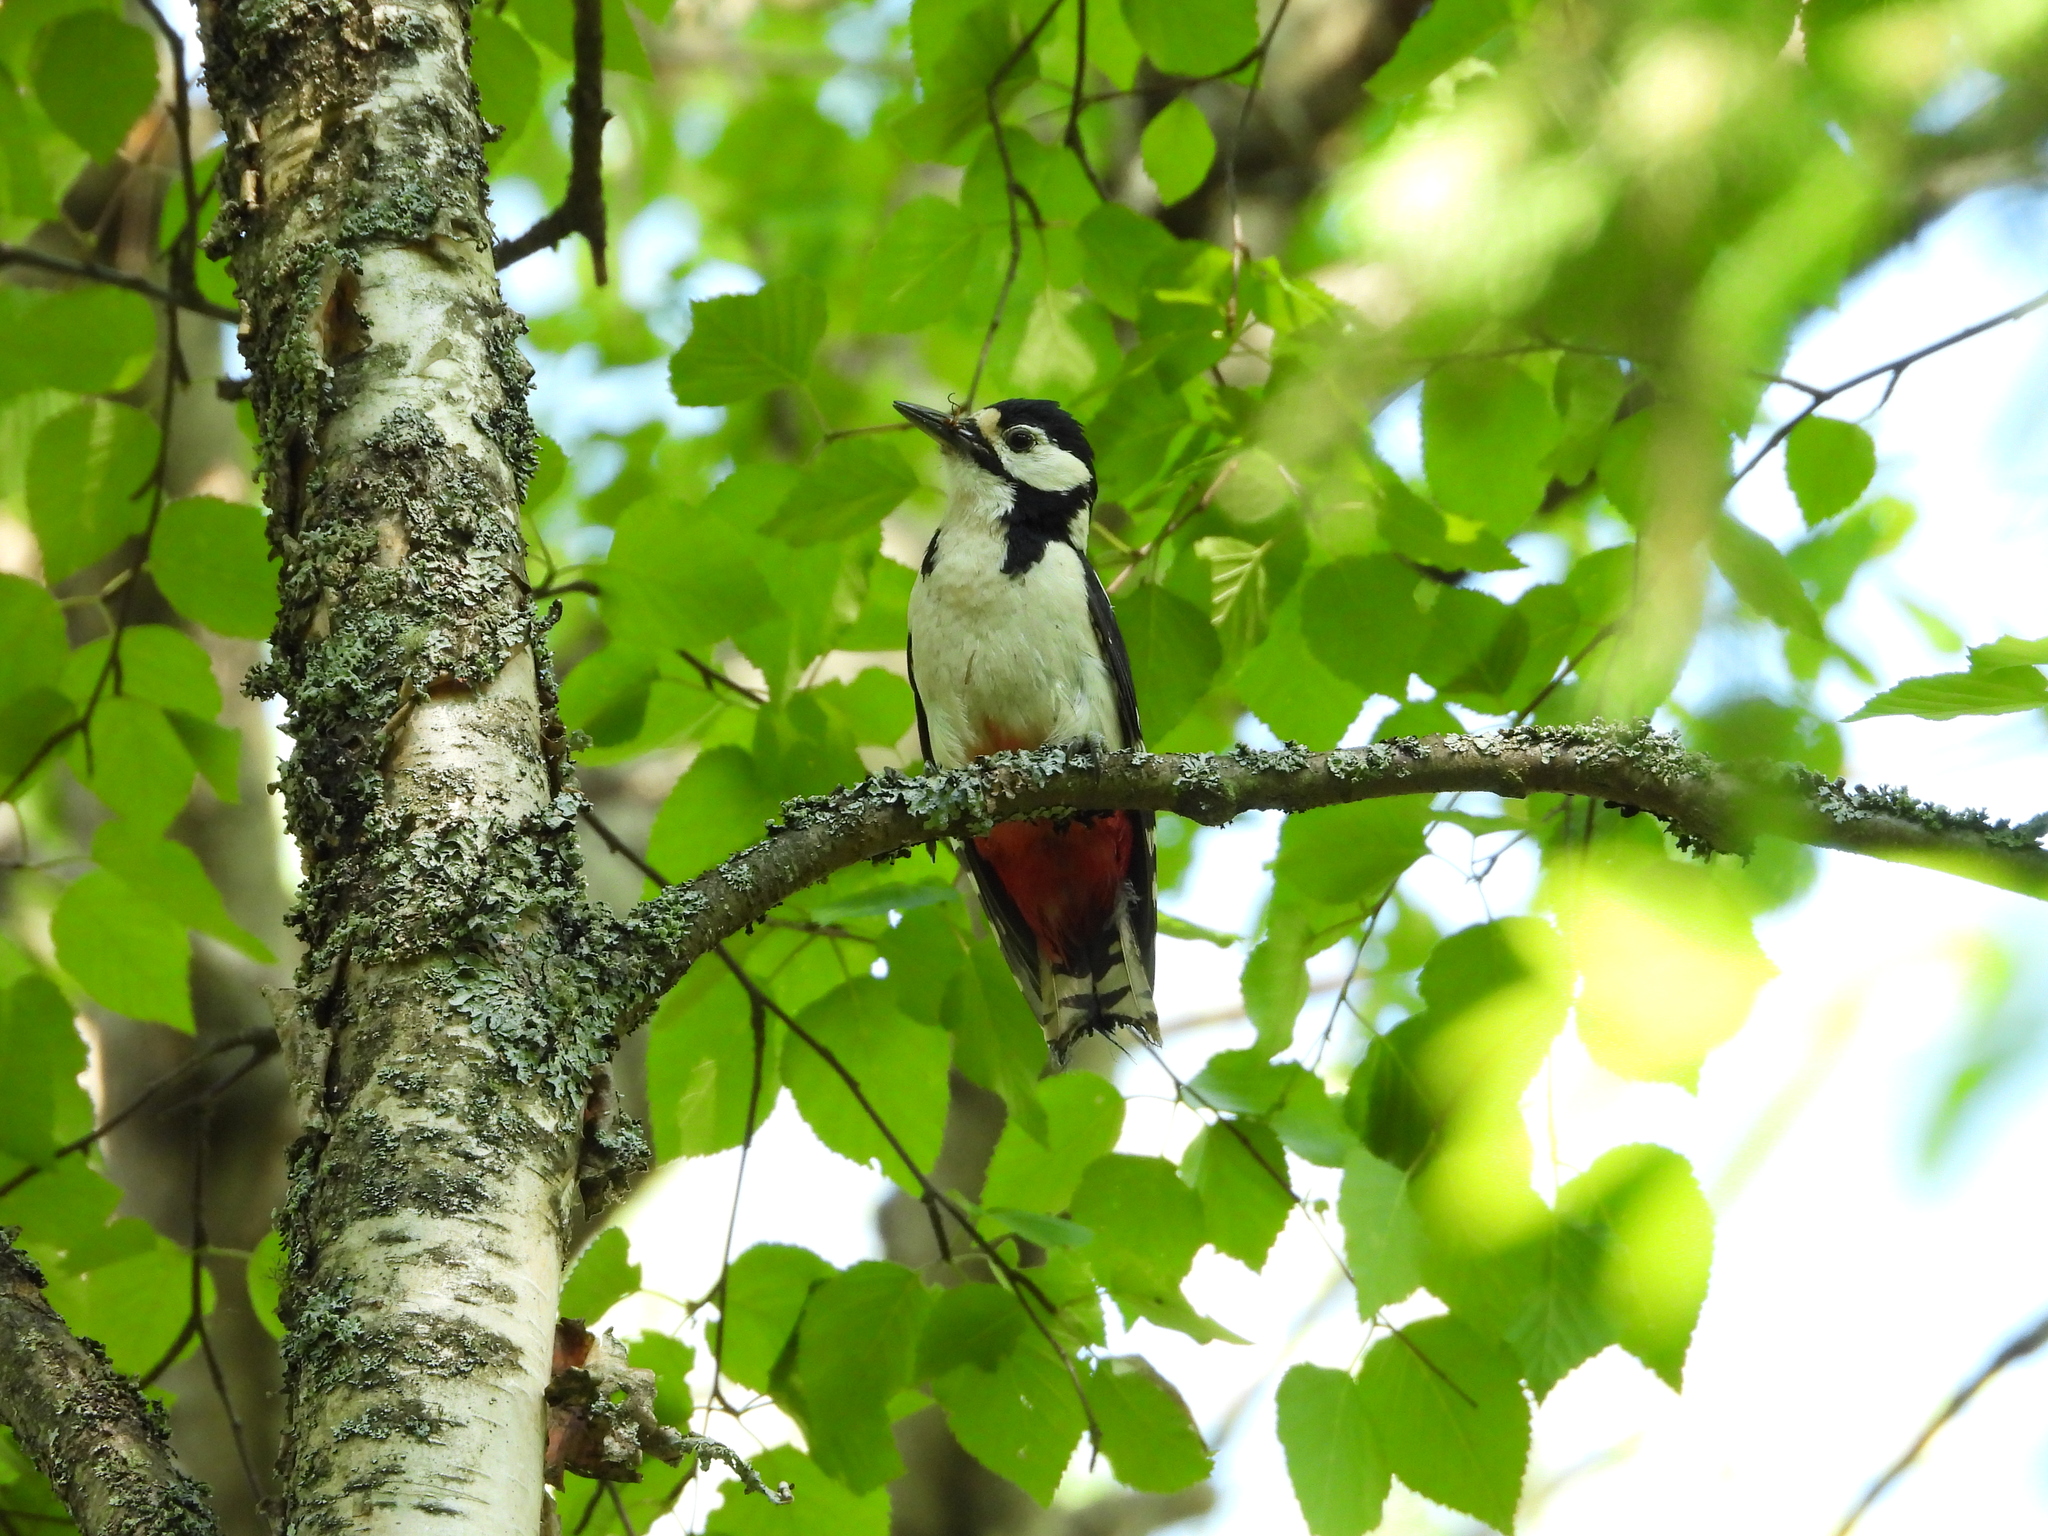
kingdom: Animalia
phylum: Chordata
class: Aves
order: Piciformes
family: Picidae
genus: Dendrocopos
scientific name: Dendrocopos major
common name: Great spotted woodpecker
